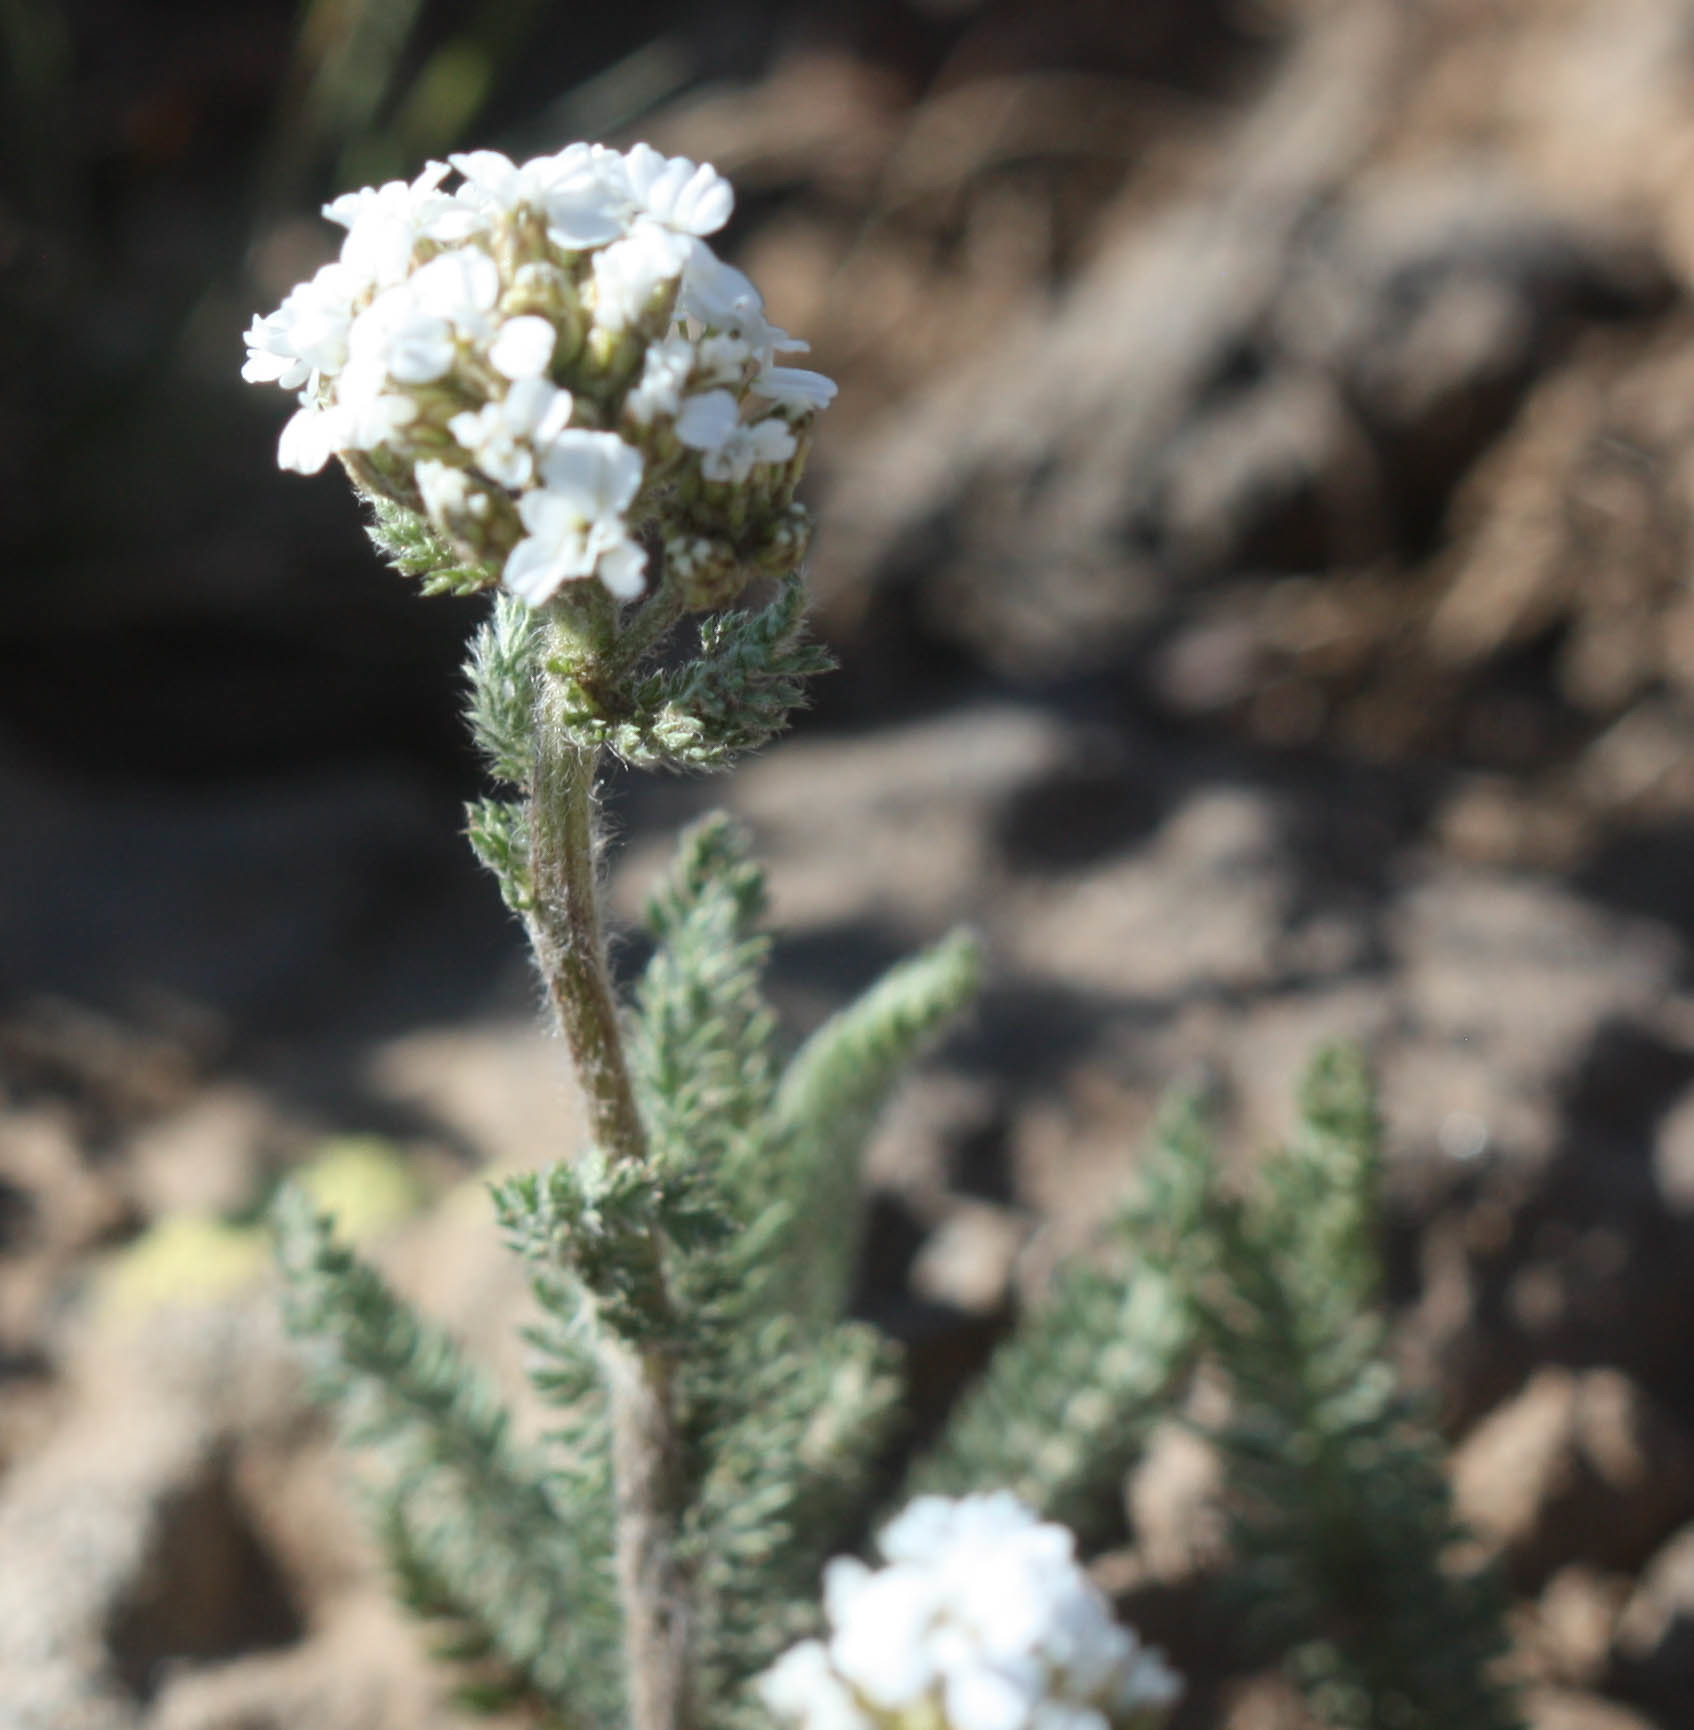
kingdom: Plantae
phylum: Tracheophyta
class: Magnoliopsida
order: Asterales
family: Asteraceae
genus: Achillea
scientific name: Achillea millefolium
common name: Yarrow
